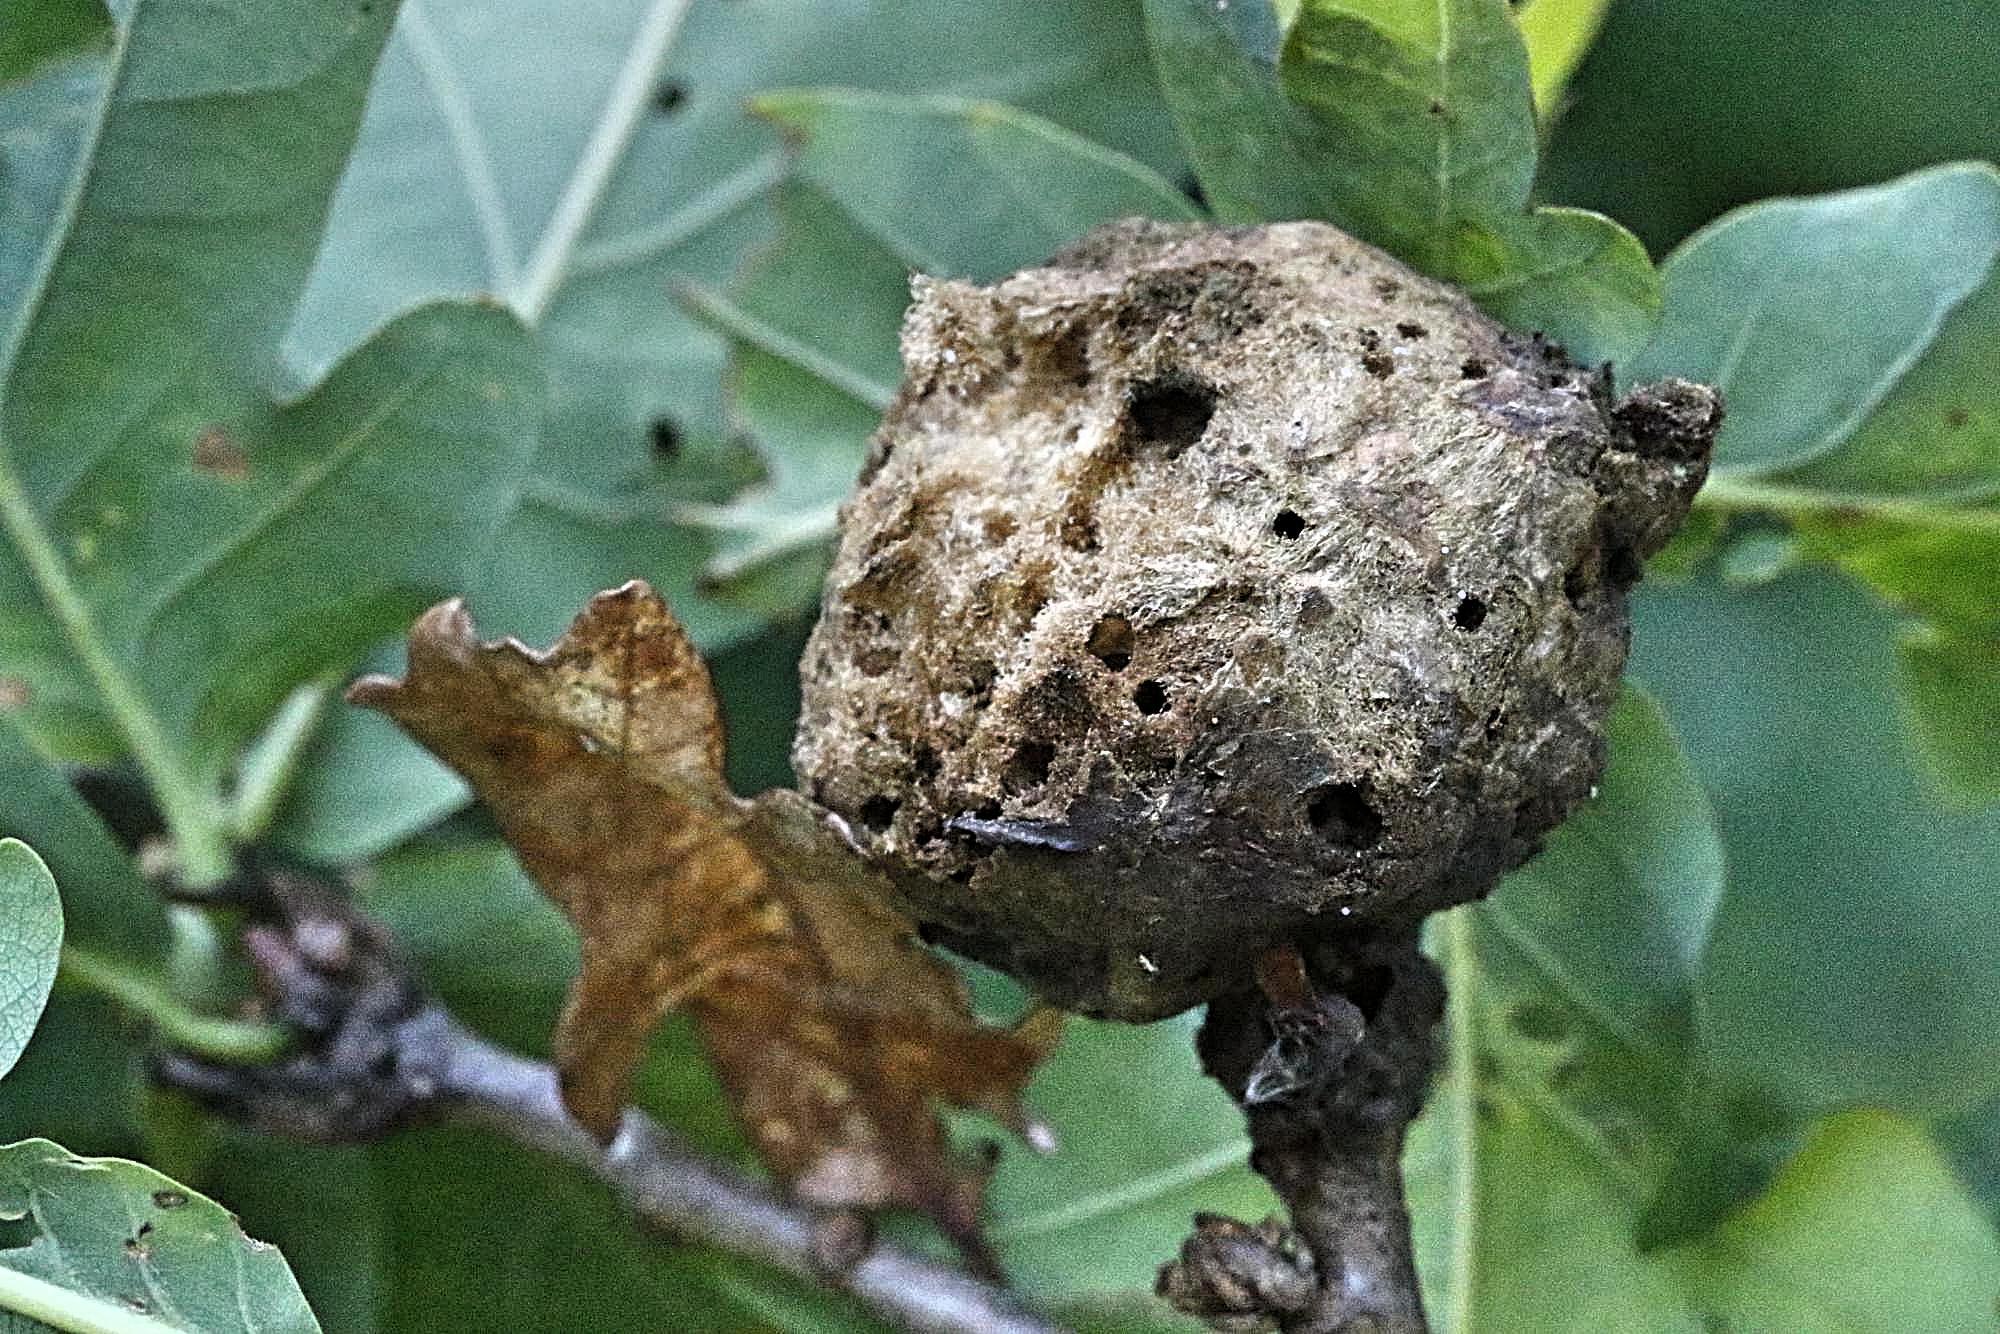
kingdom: Animalia
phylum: Arthropoda
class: Insecta
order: Hymenoptera
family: Cynipidae
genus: Biorhiza
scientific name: Biorhiza pallida
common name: Oak apple
